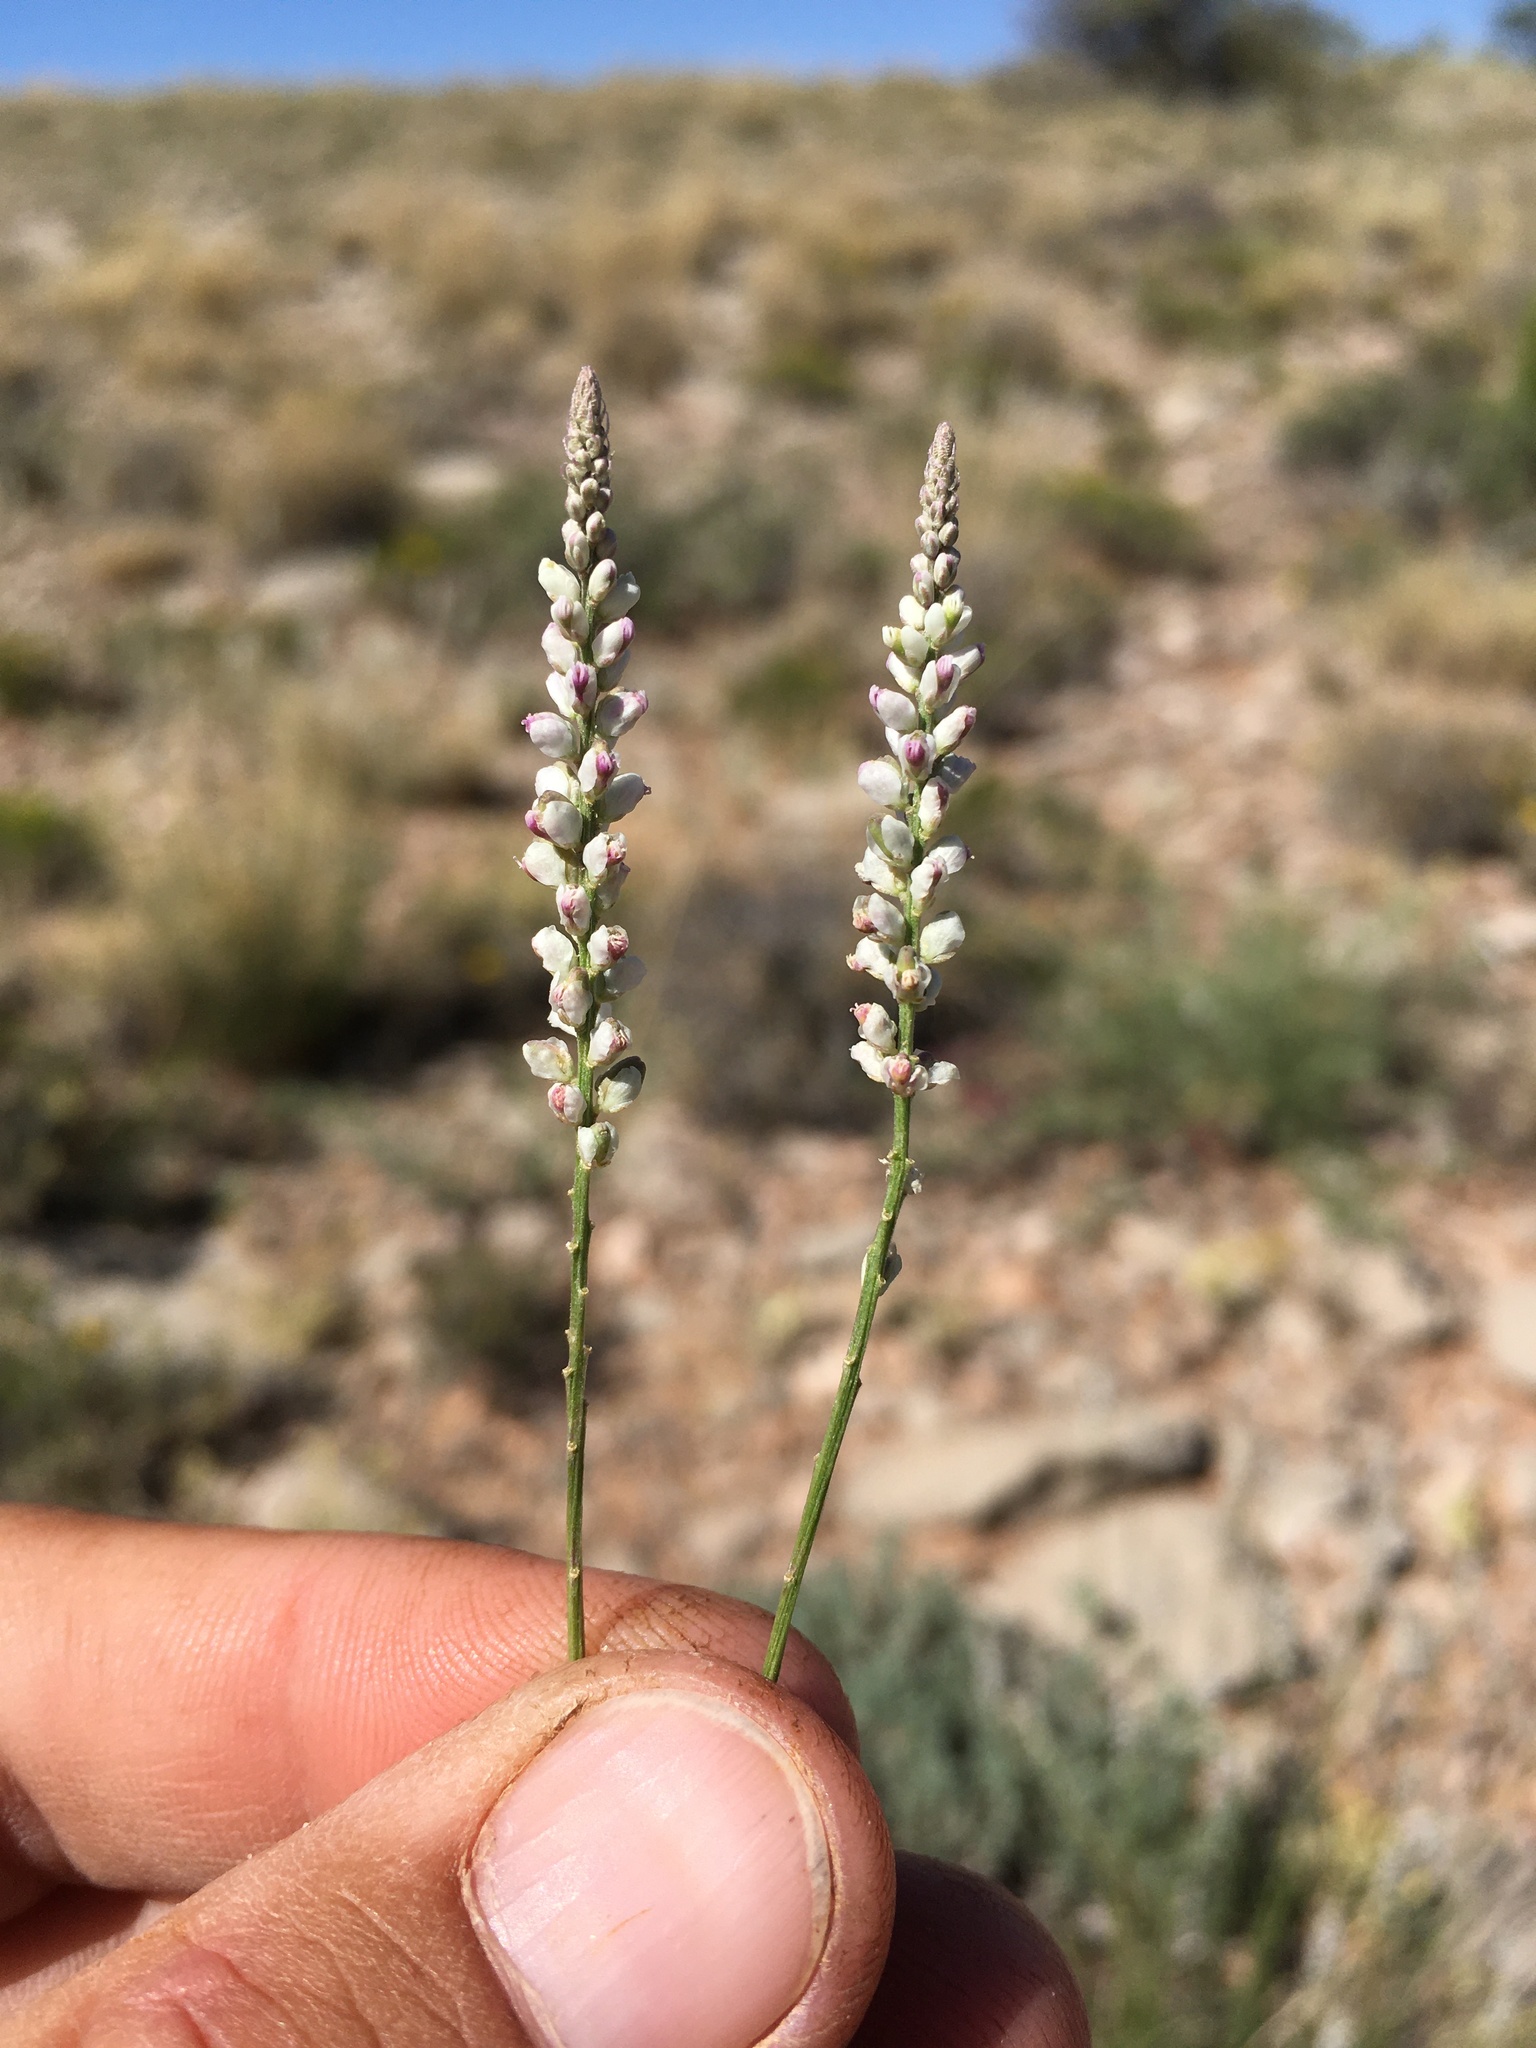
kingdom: Plantae
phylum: Tracheophyta
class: Magnoliopsida
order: Fabales
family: Polygalaceae
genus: Polygala
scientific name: Polygala alba
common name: White milkwort
